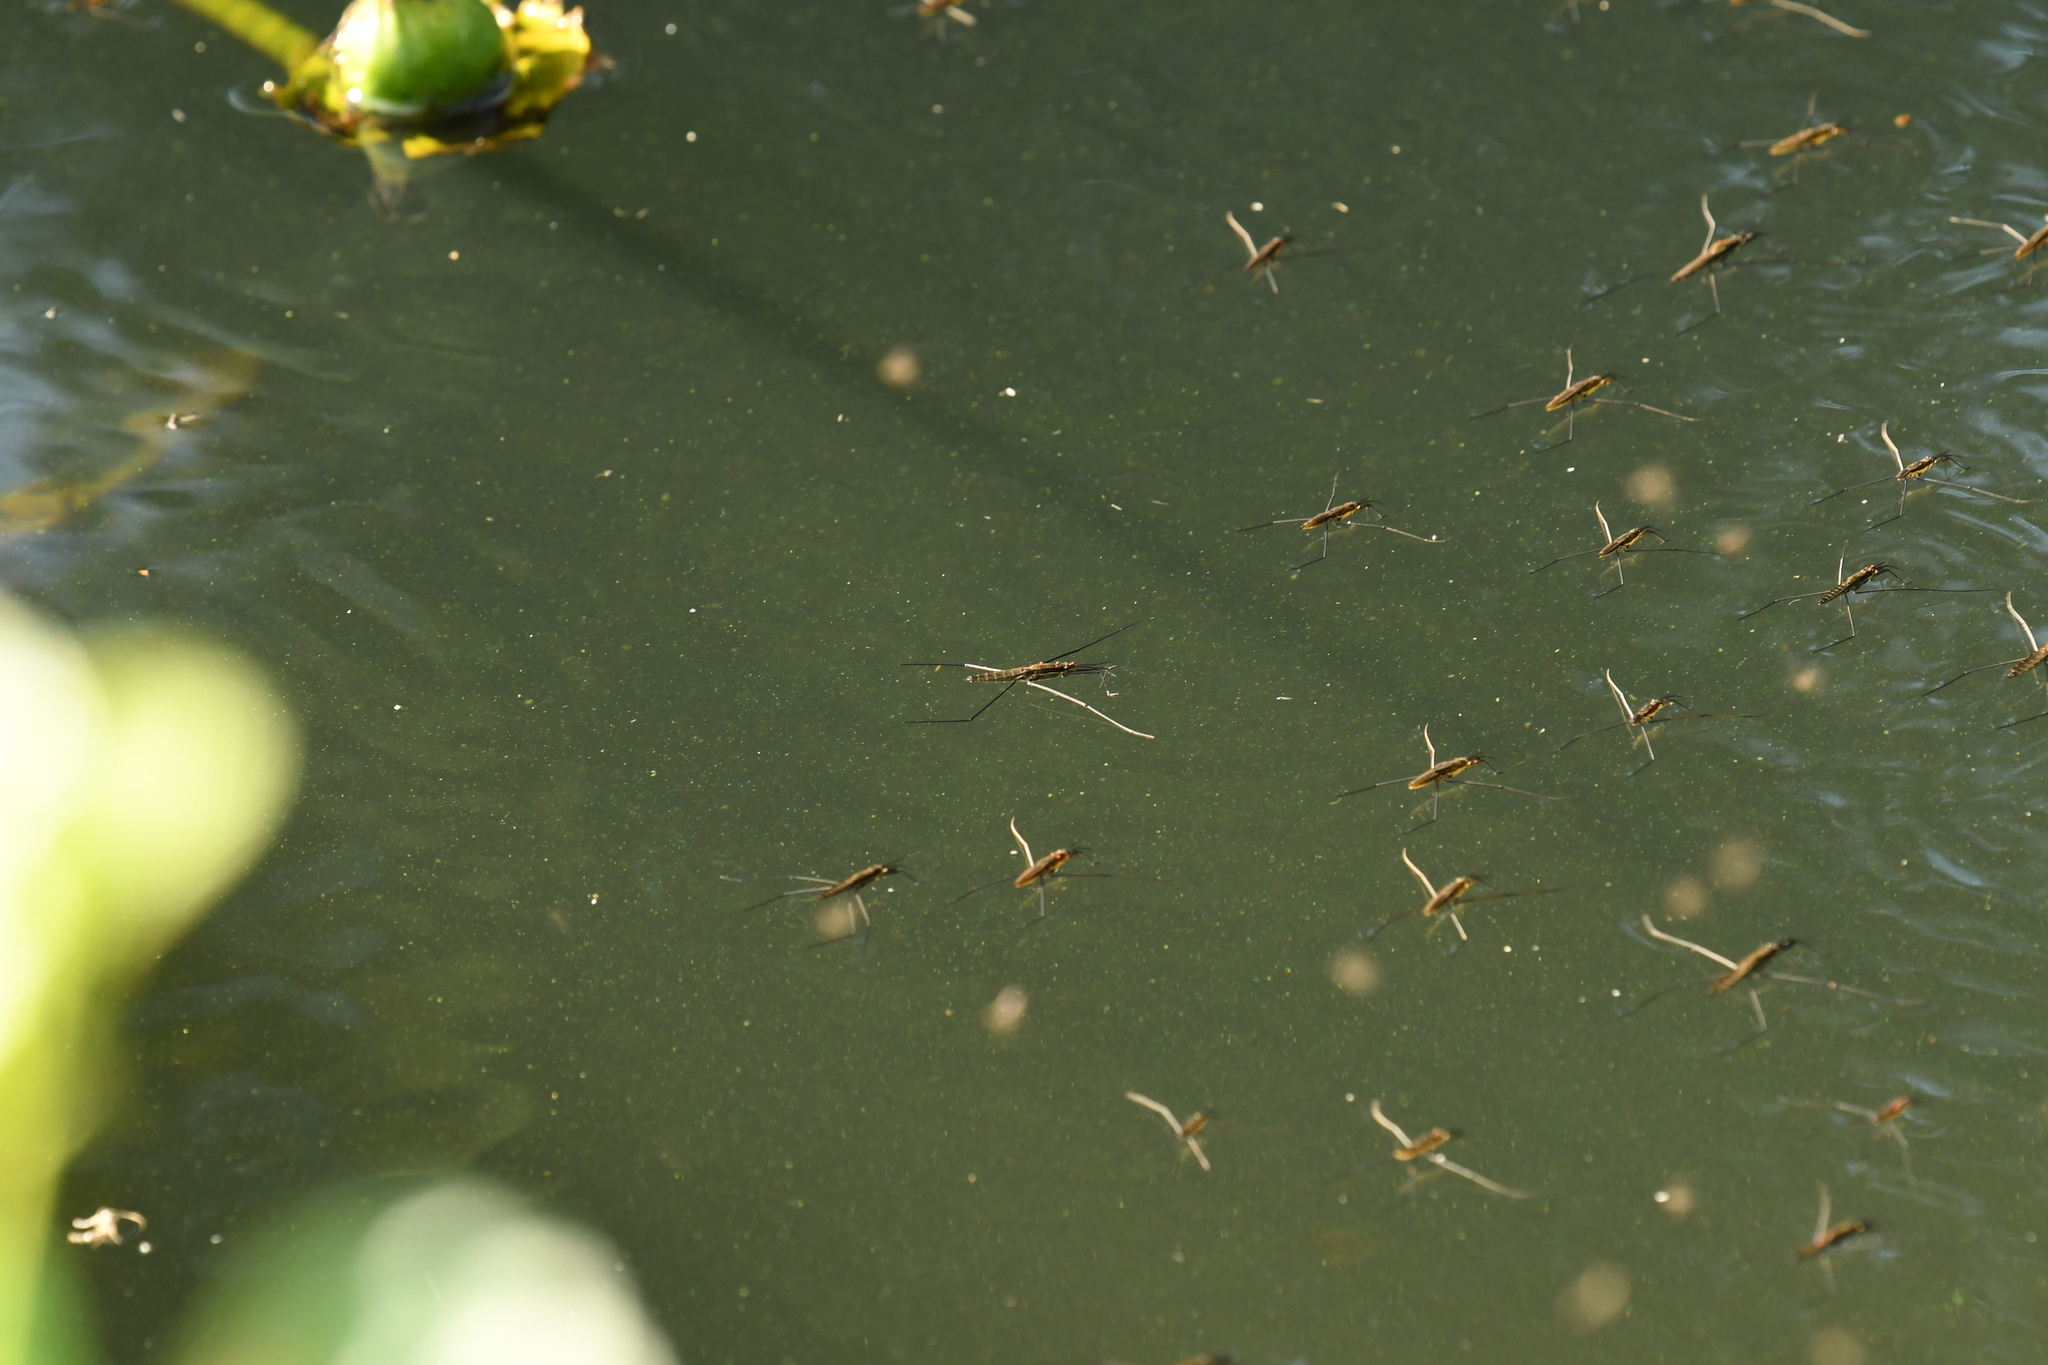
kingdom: Animalia
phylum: Arthropoda
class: Insecta
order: Hemiptera
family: Gerridae
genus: Aquarius
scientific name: Aquarius najas
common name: River skater
